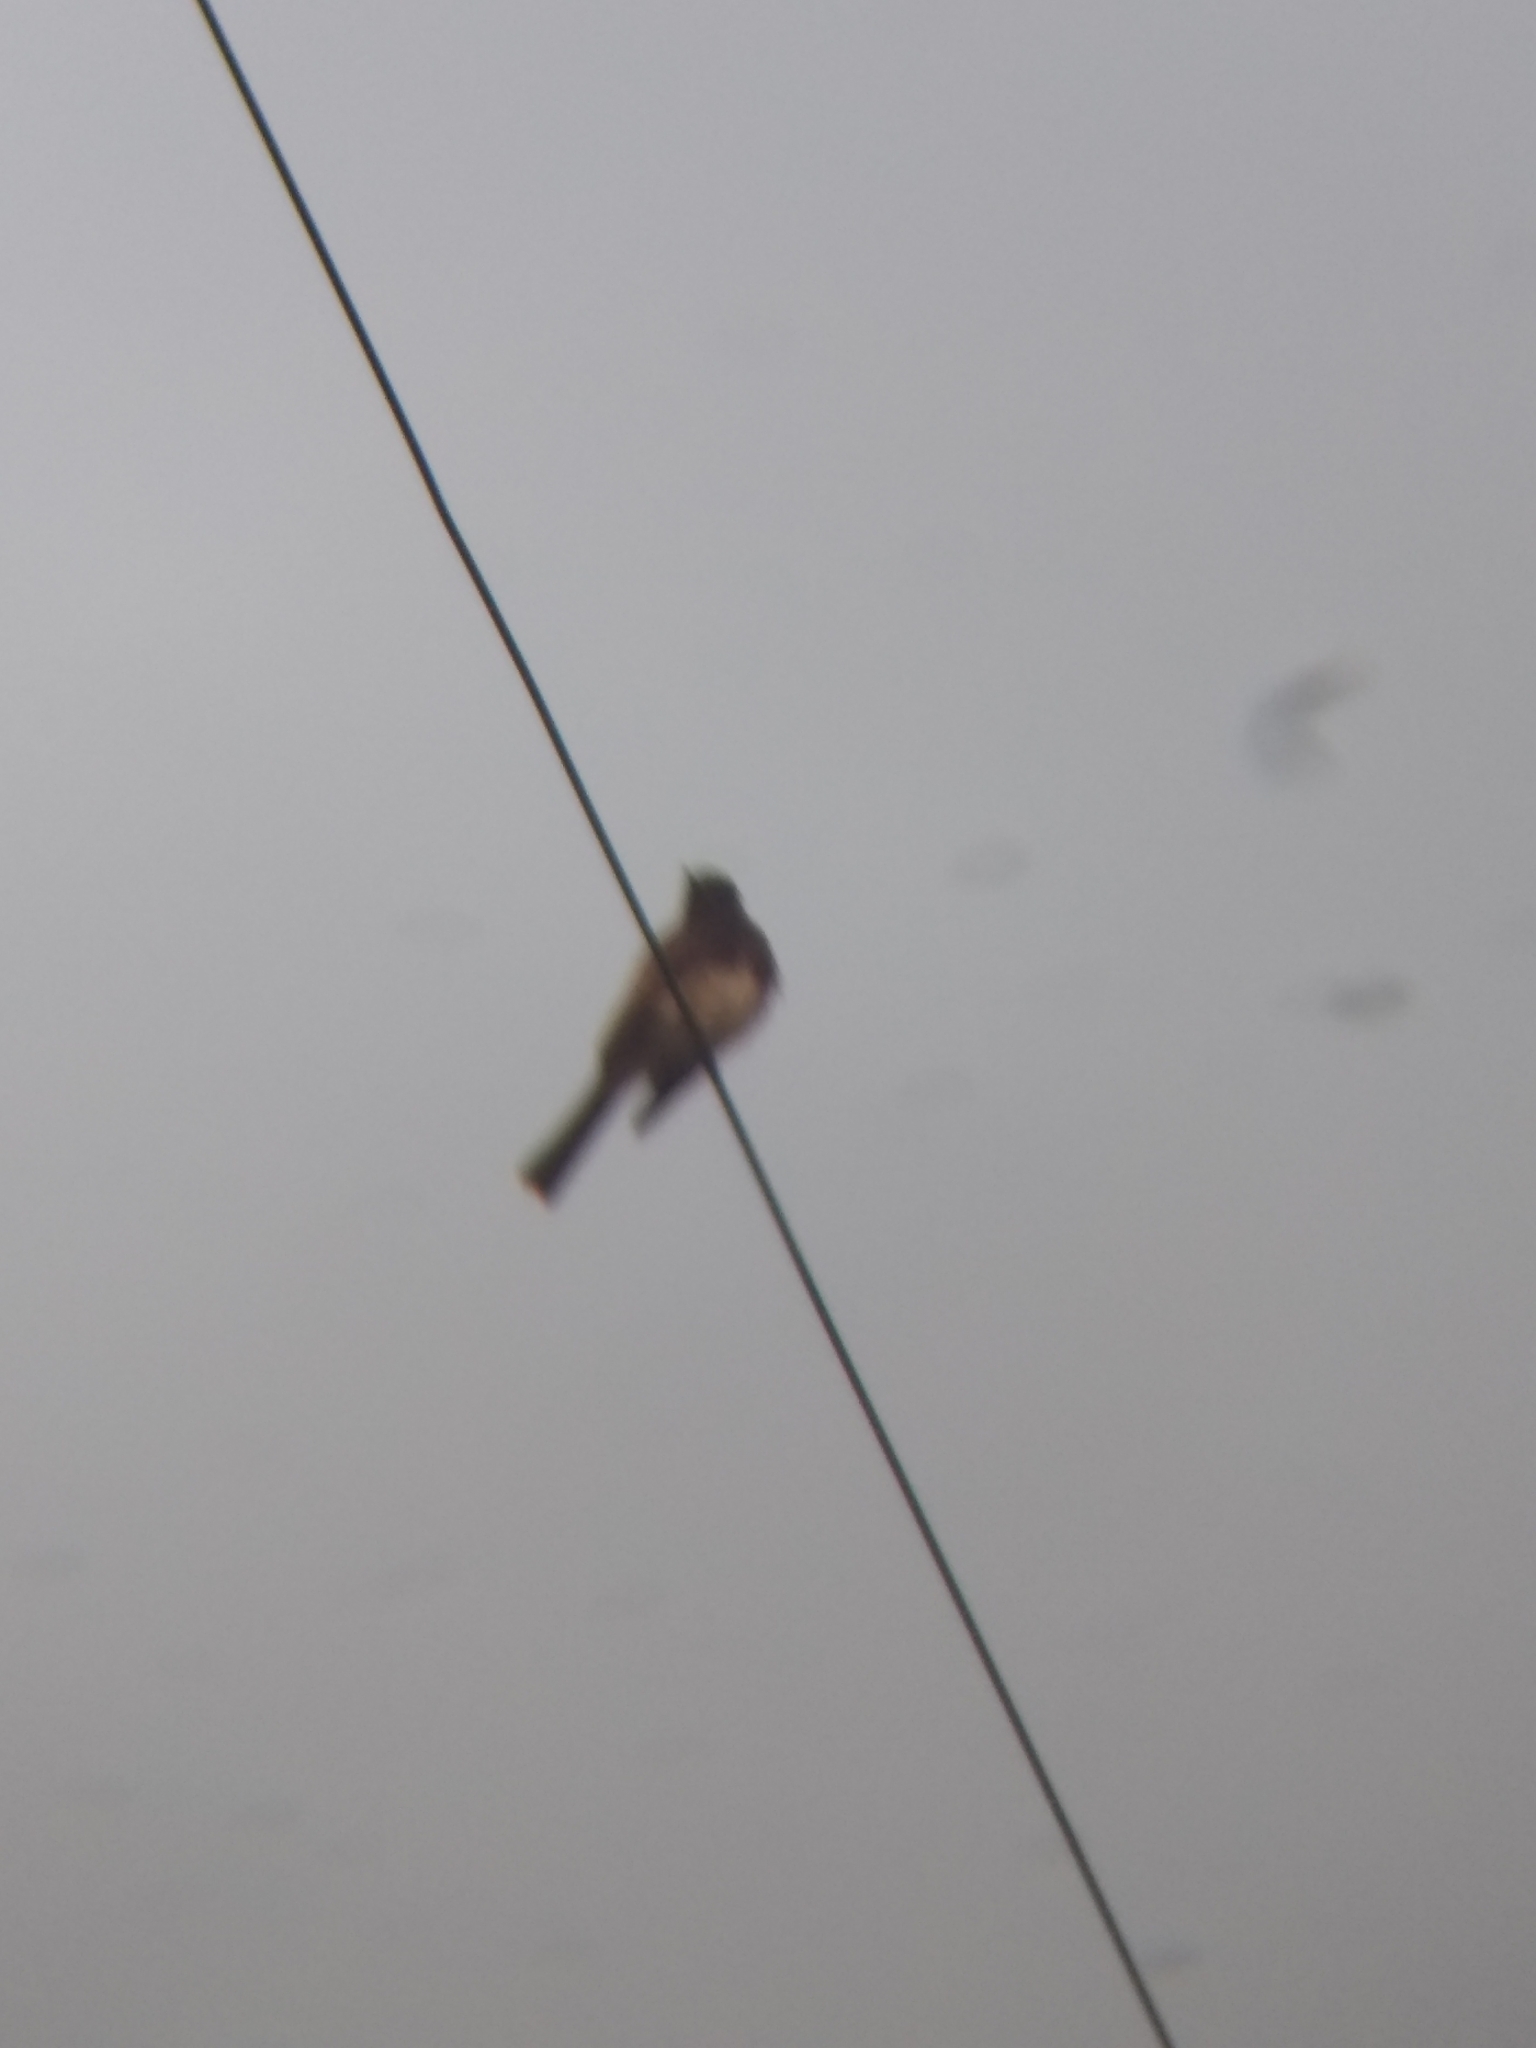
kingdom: Animalia
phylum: Chordata
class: Aves
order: Passeriformes
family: Tyrannidae
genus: Sayornis
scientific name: Sayornis nigricans
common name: Black phoebe
